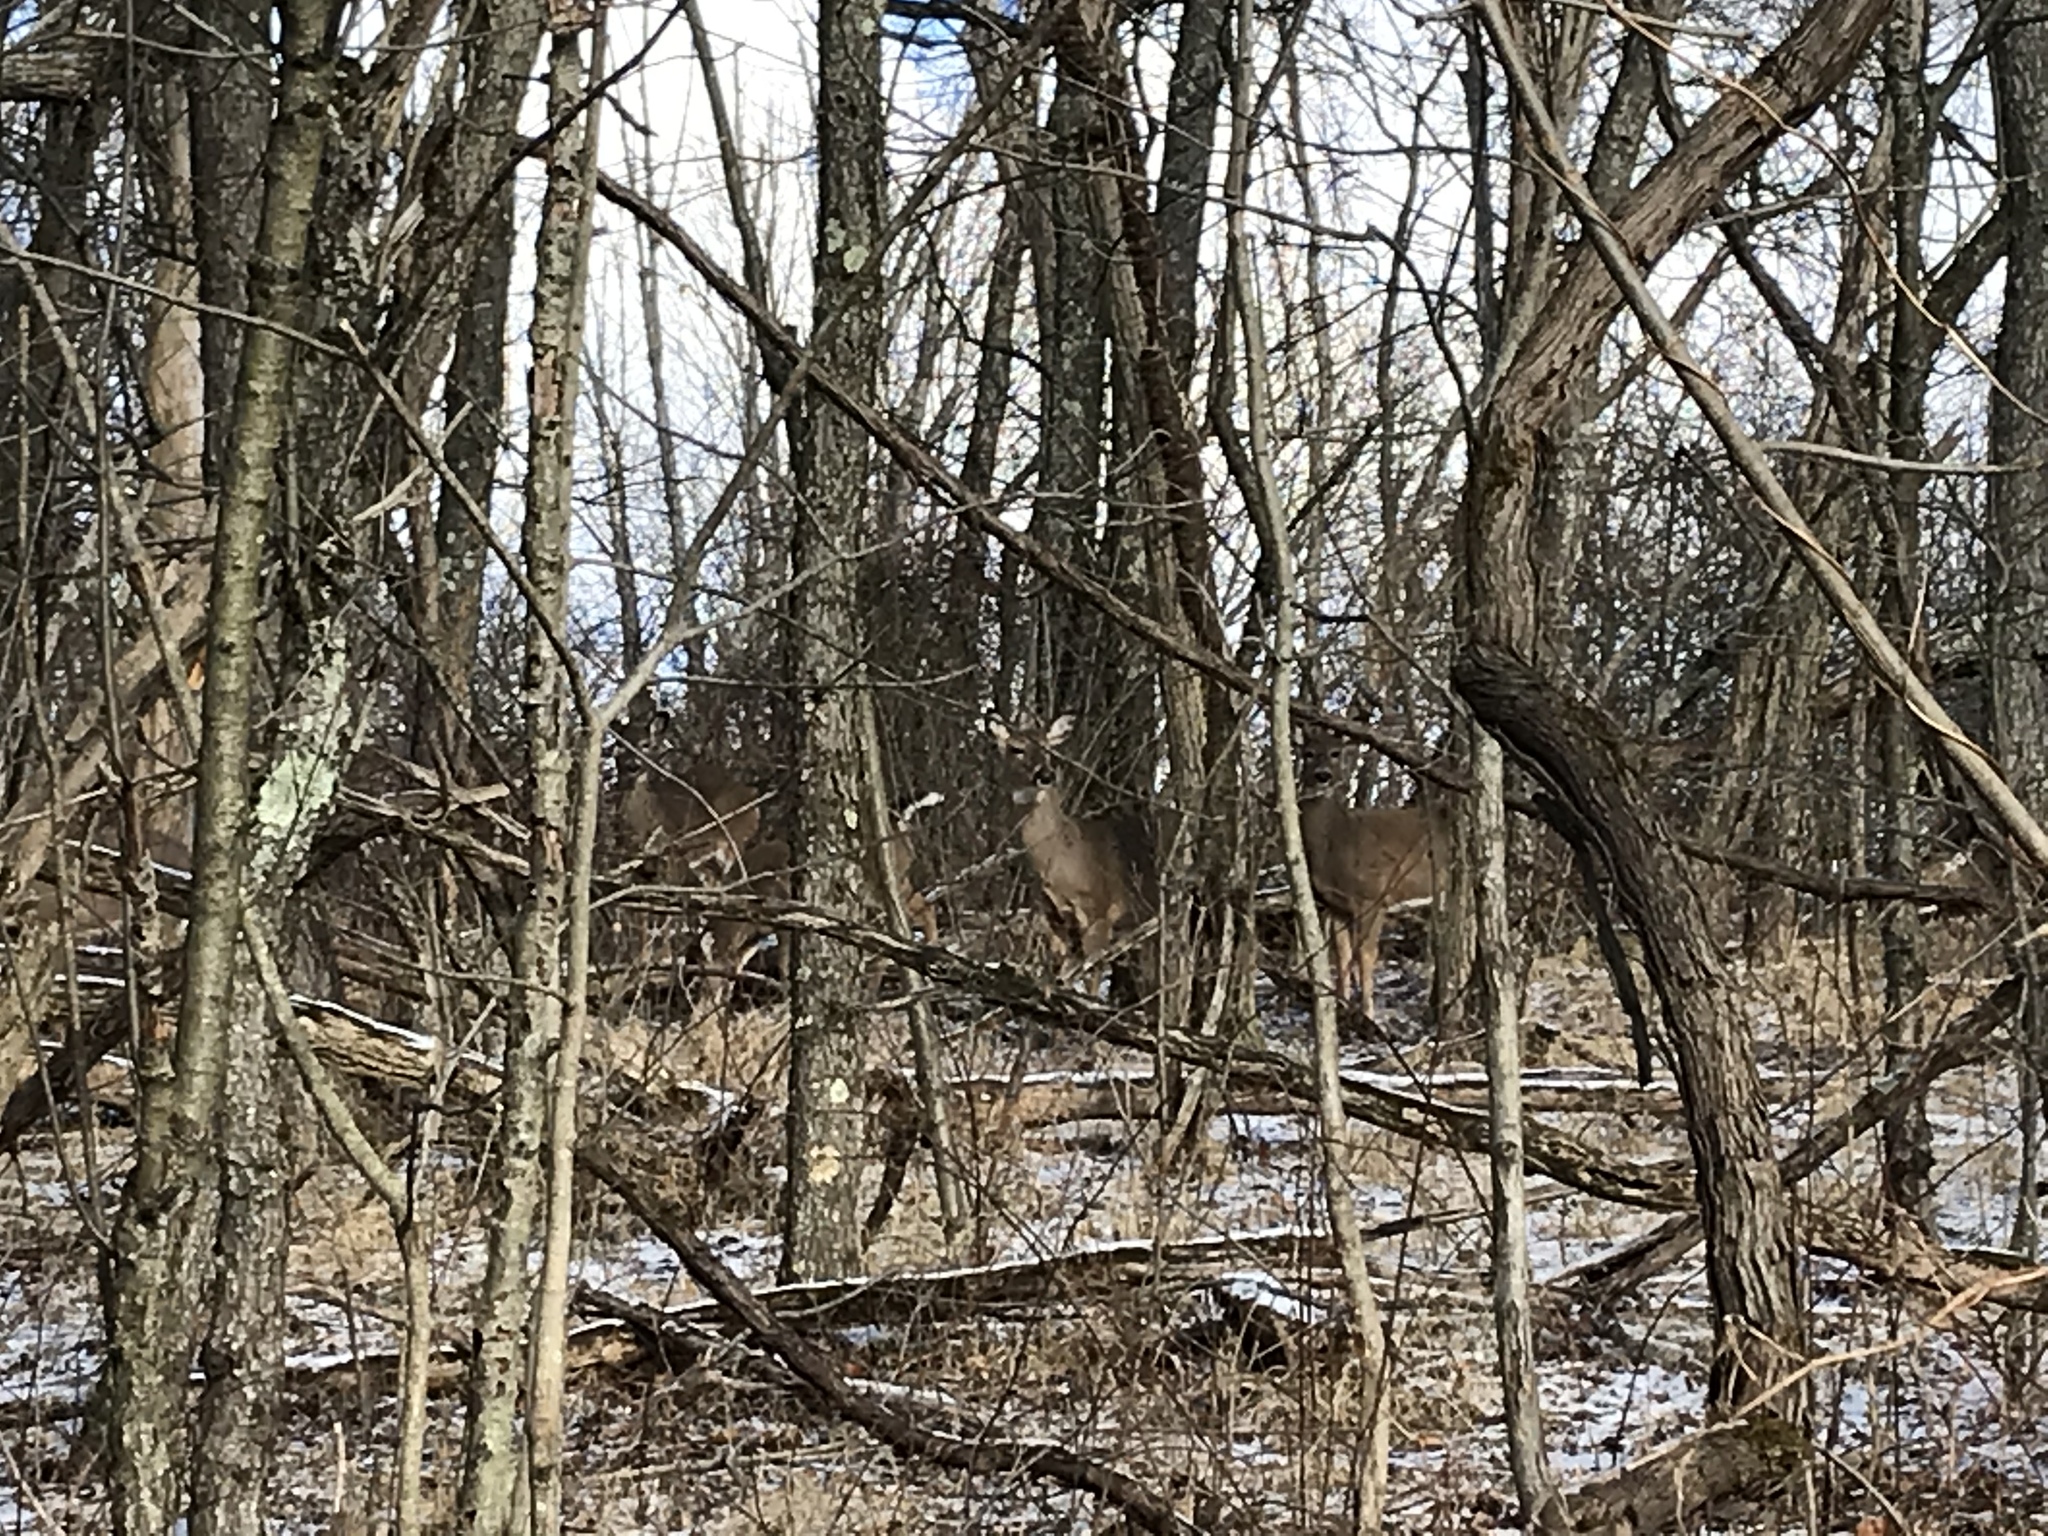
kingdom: Animalia
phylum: Chordata
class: Mammalia
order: Artiodactyla
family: Cervidae
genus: Odocoileus
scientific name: Odocoileus virginianus
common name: White-tailed deer
